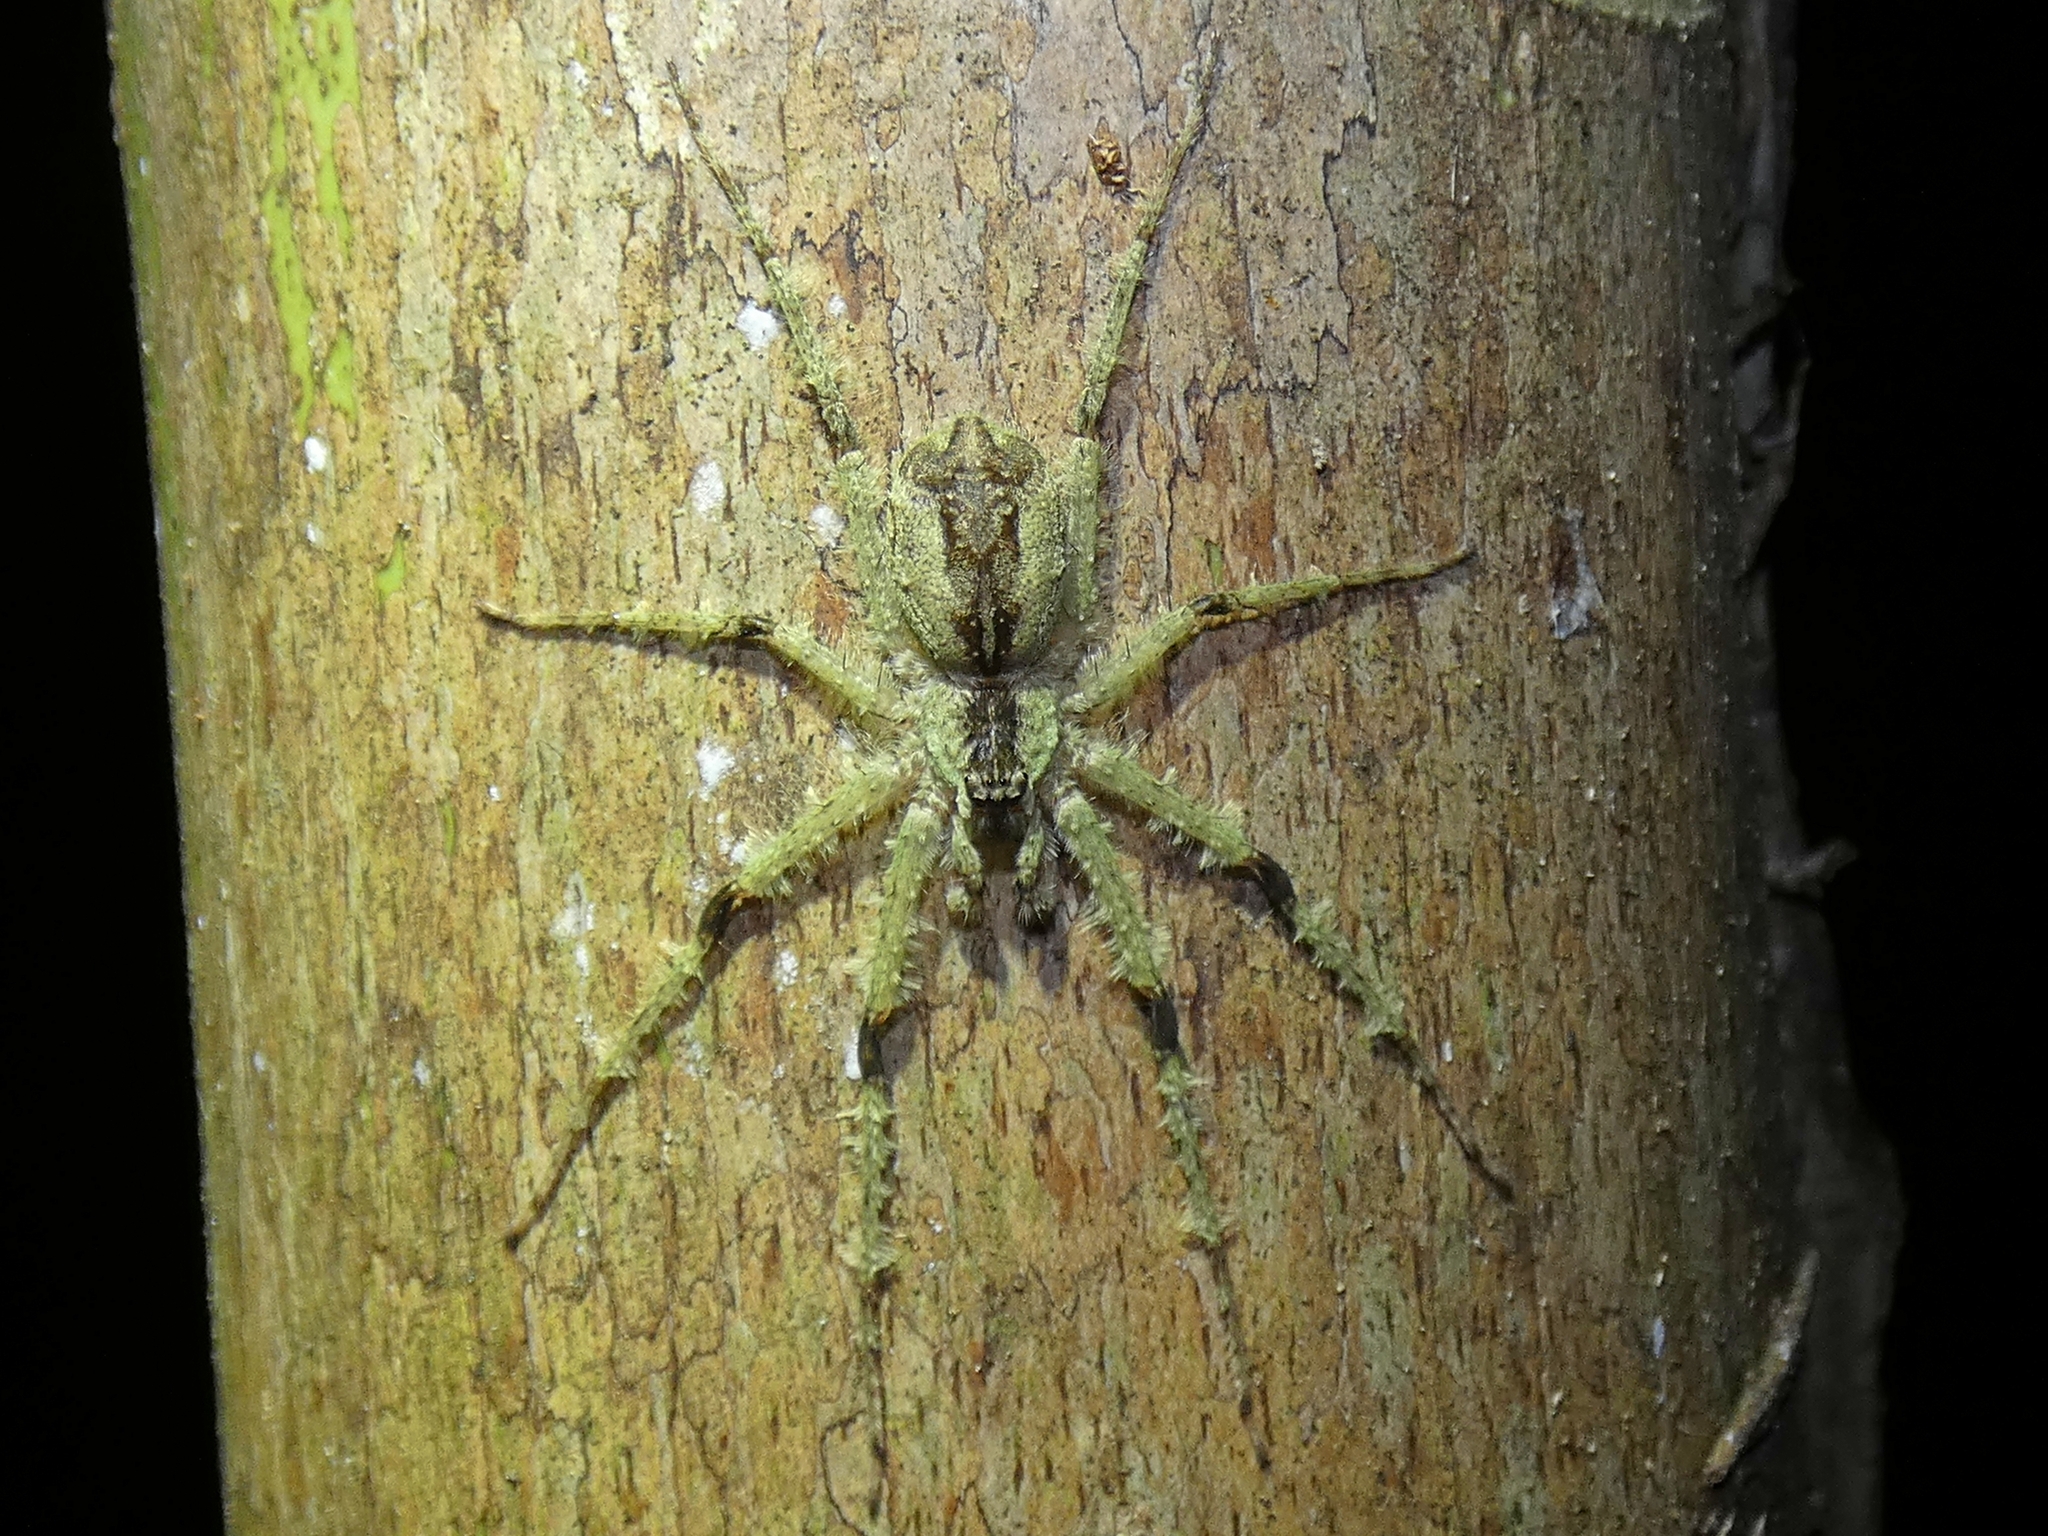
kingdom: Animalia
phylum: Arthropoda
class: Arachnida
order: Araneae
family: Sparassidae
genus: Pandercetes
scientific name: Pandercetes gracilis
